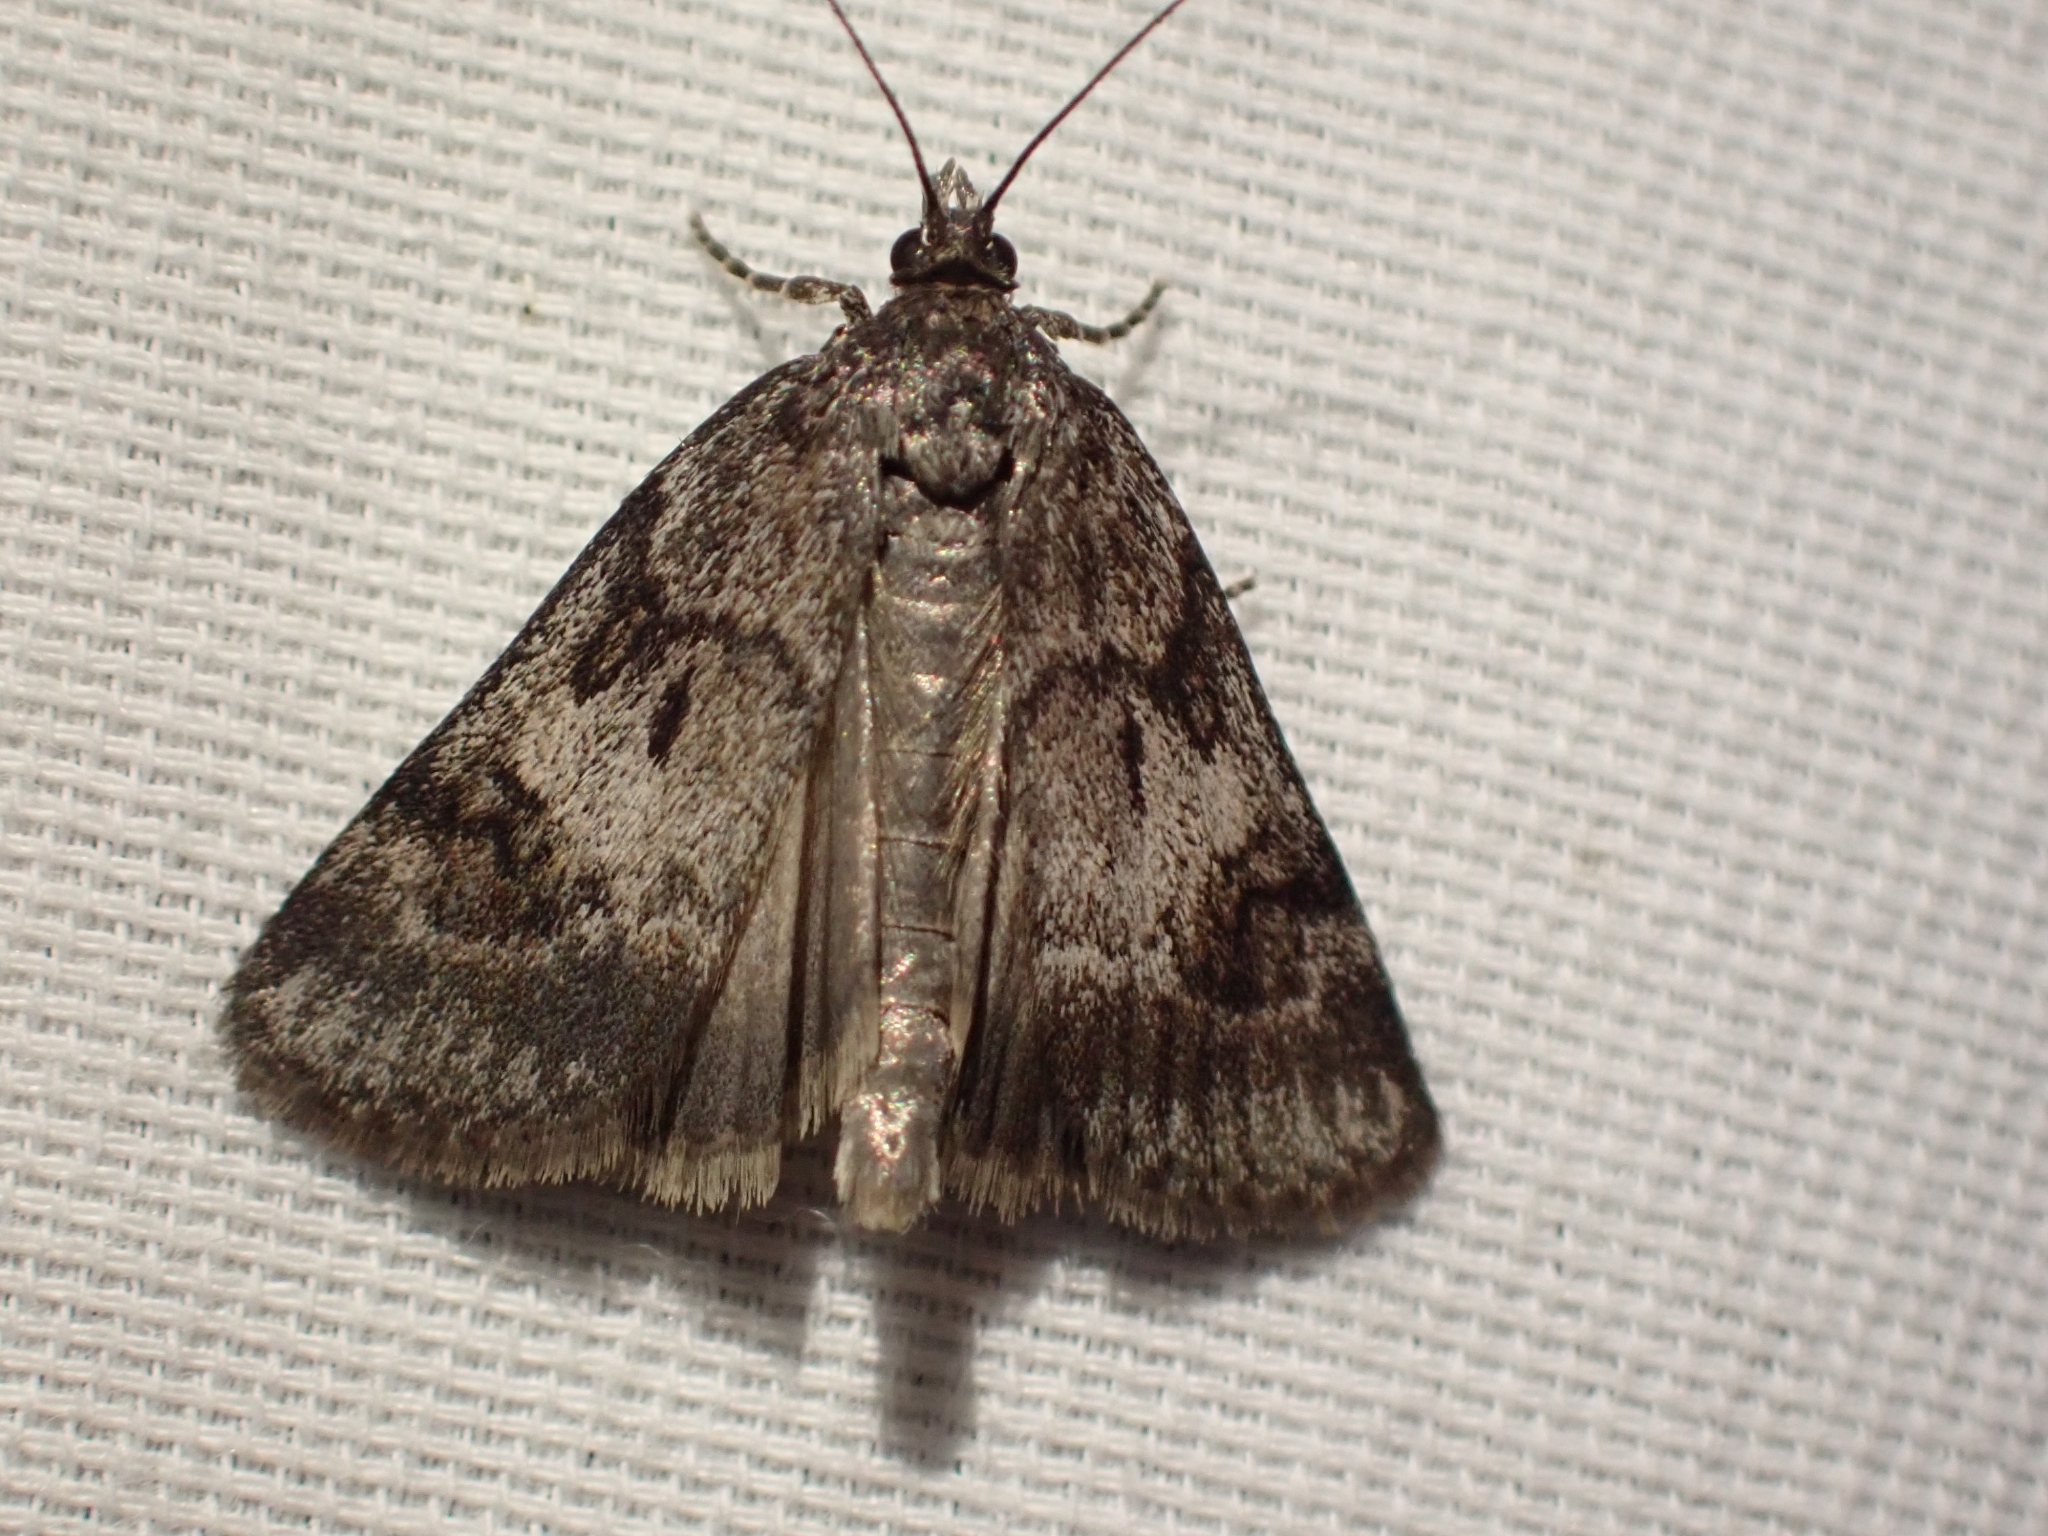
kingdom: Animalia
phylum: Arthropoda
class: Insecta
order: Lepidoptera
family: Crambidae
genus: Gesneria
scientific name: Gesneria centuriella
